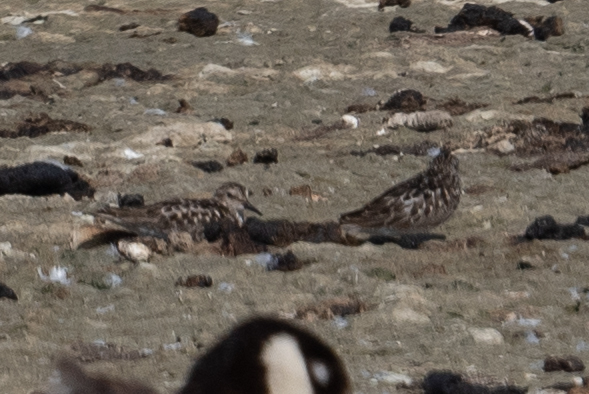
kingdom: Animalia
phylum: Chordata
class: Aves
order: Charadriiformes
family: Scolopacidae
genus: Calidris
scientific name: Calidris minutilla
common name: Least sandpiper
